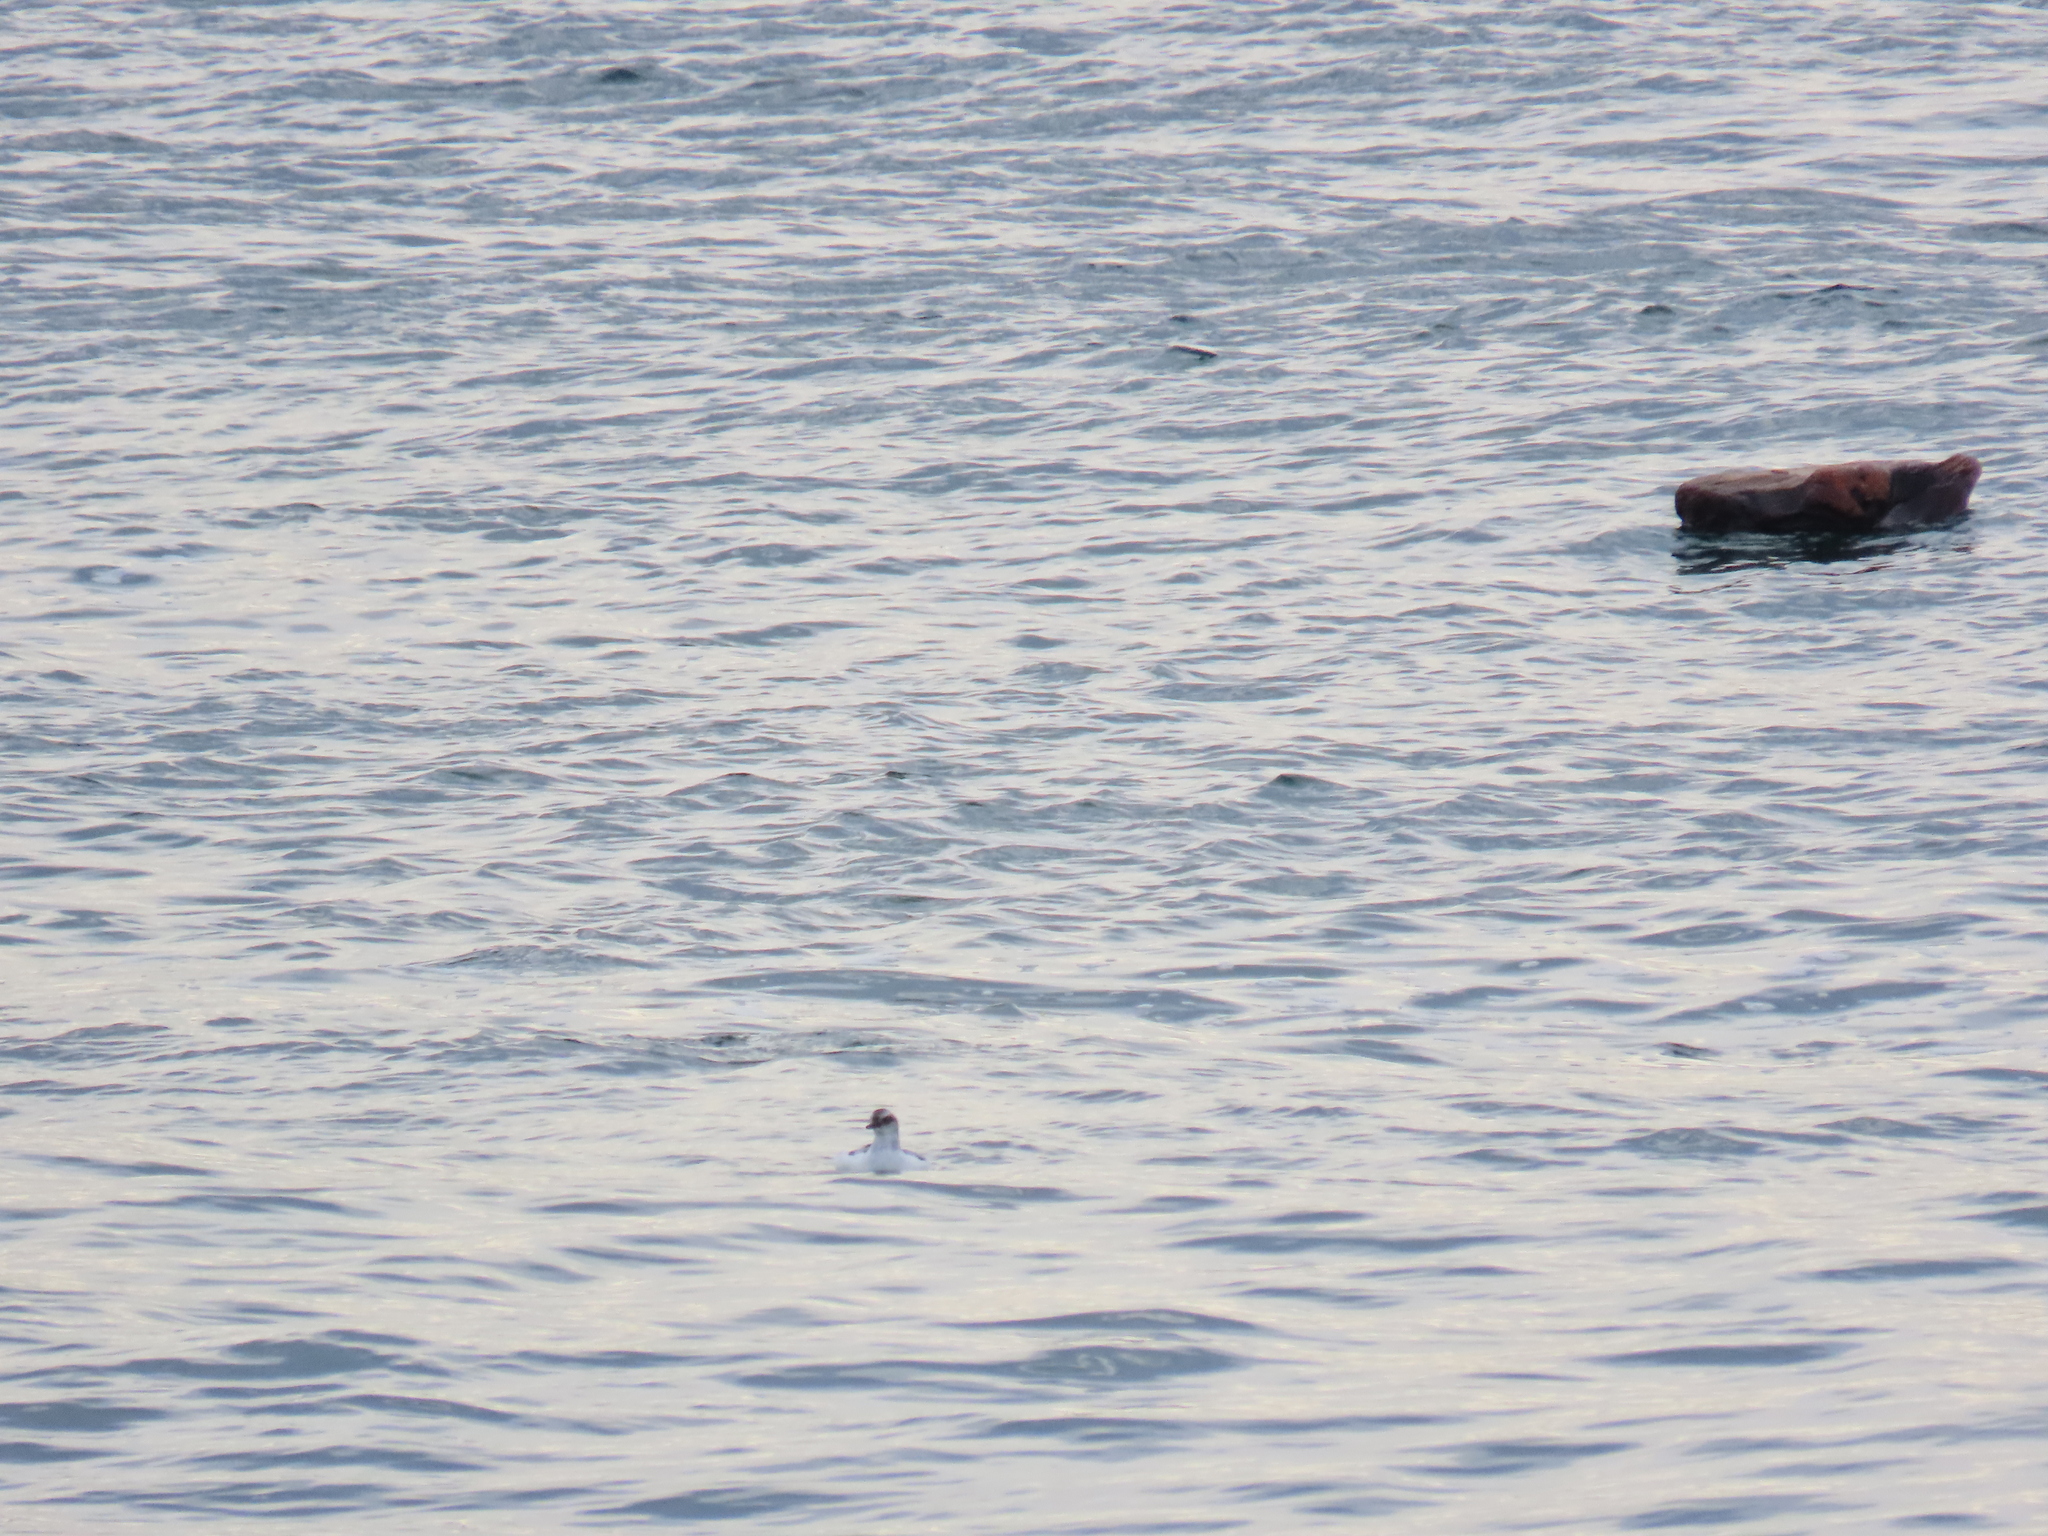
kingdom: Animalia
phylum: Chordata
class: Aves
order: Charadriiformes
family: Alcidae
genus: Cepphus
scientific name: Cepphus columba
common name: Pigeon guillemot
